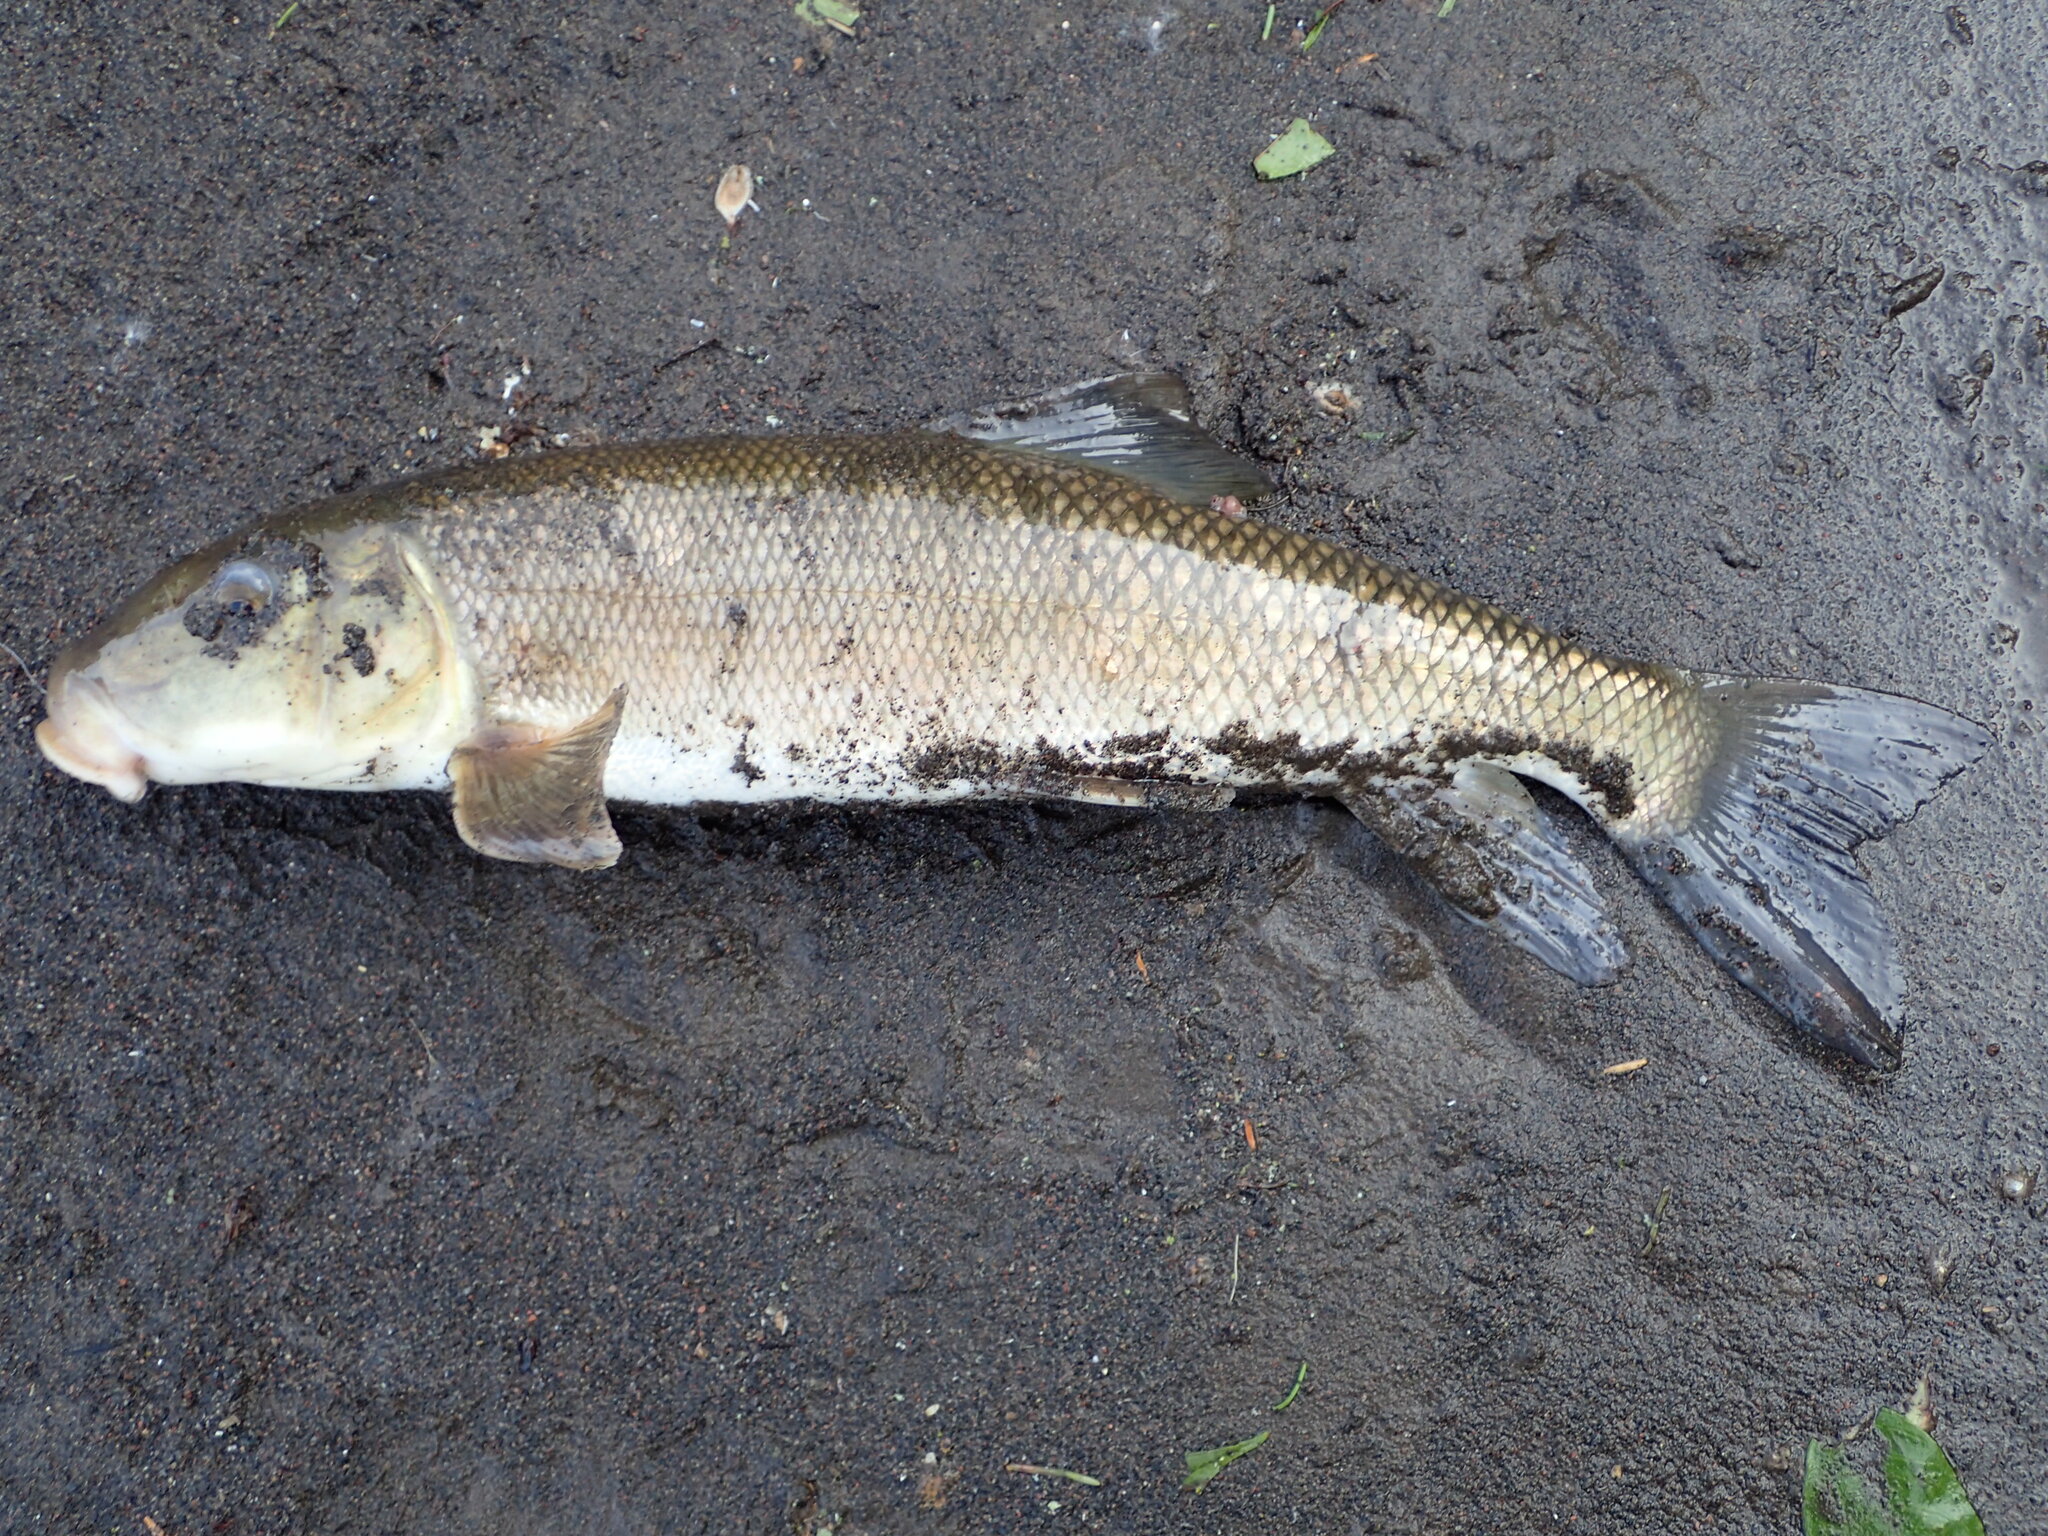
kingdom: Animalia
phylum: Chordata
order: Cypriniformes
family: Catostomidae
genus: Catostomus
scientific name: Catostomus commersonii
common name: White sucker
